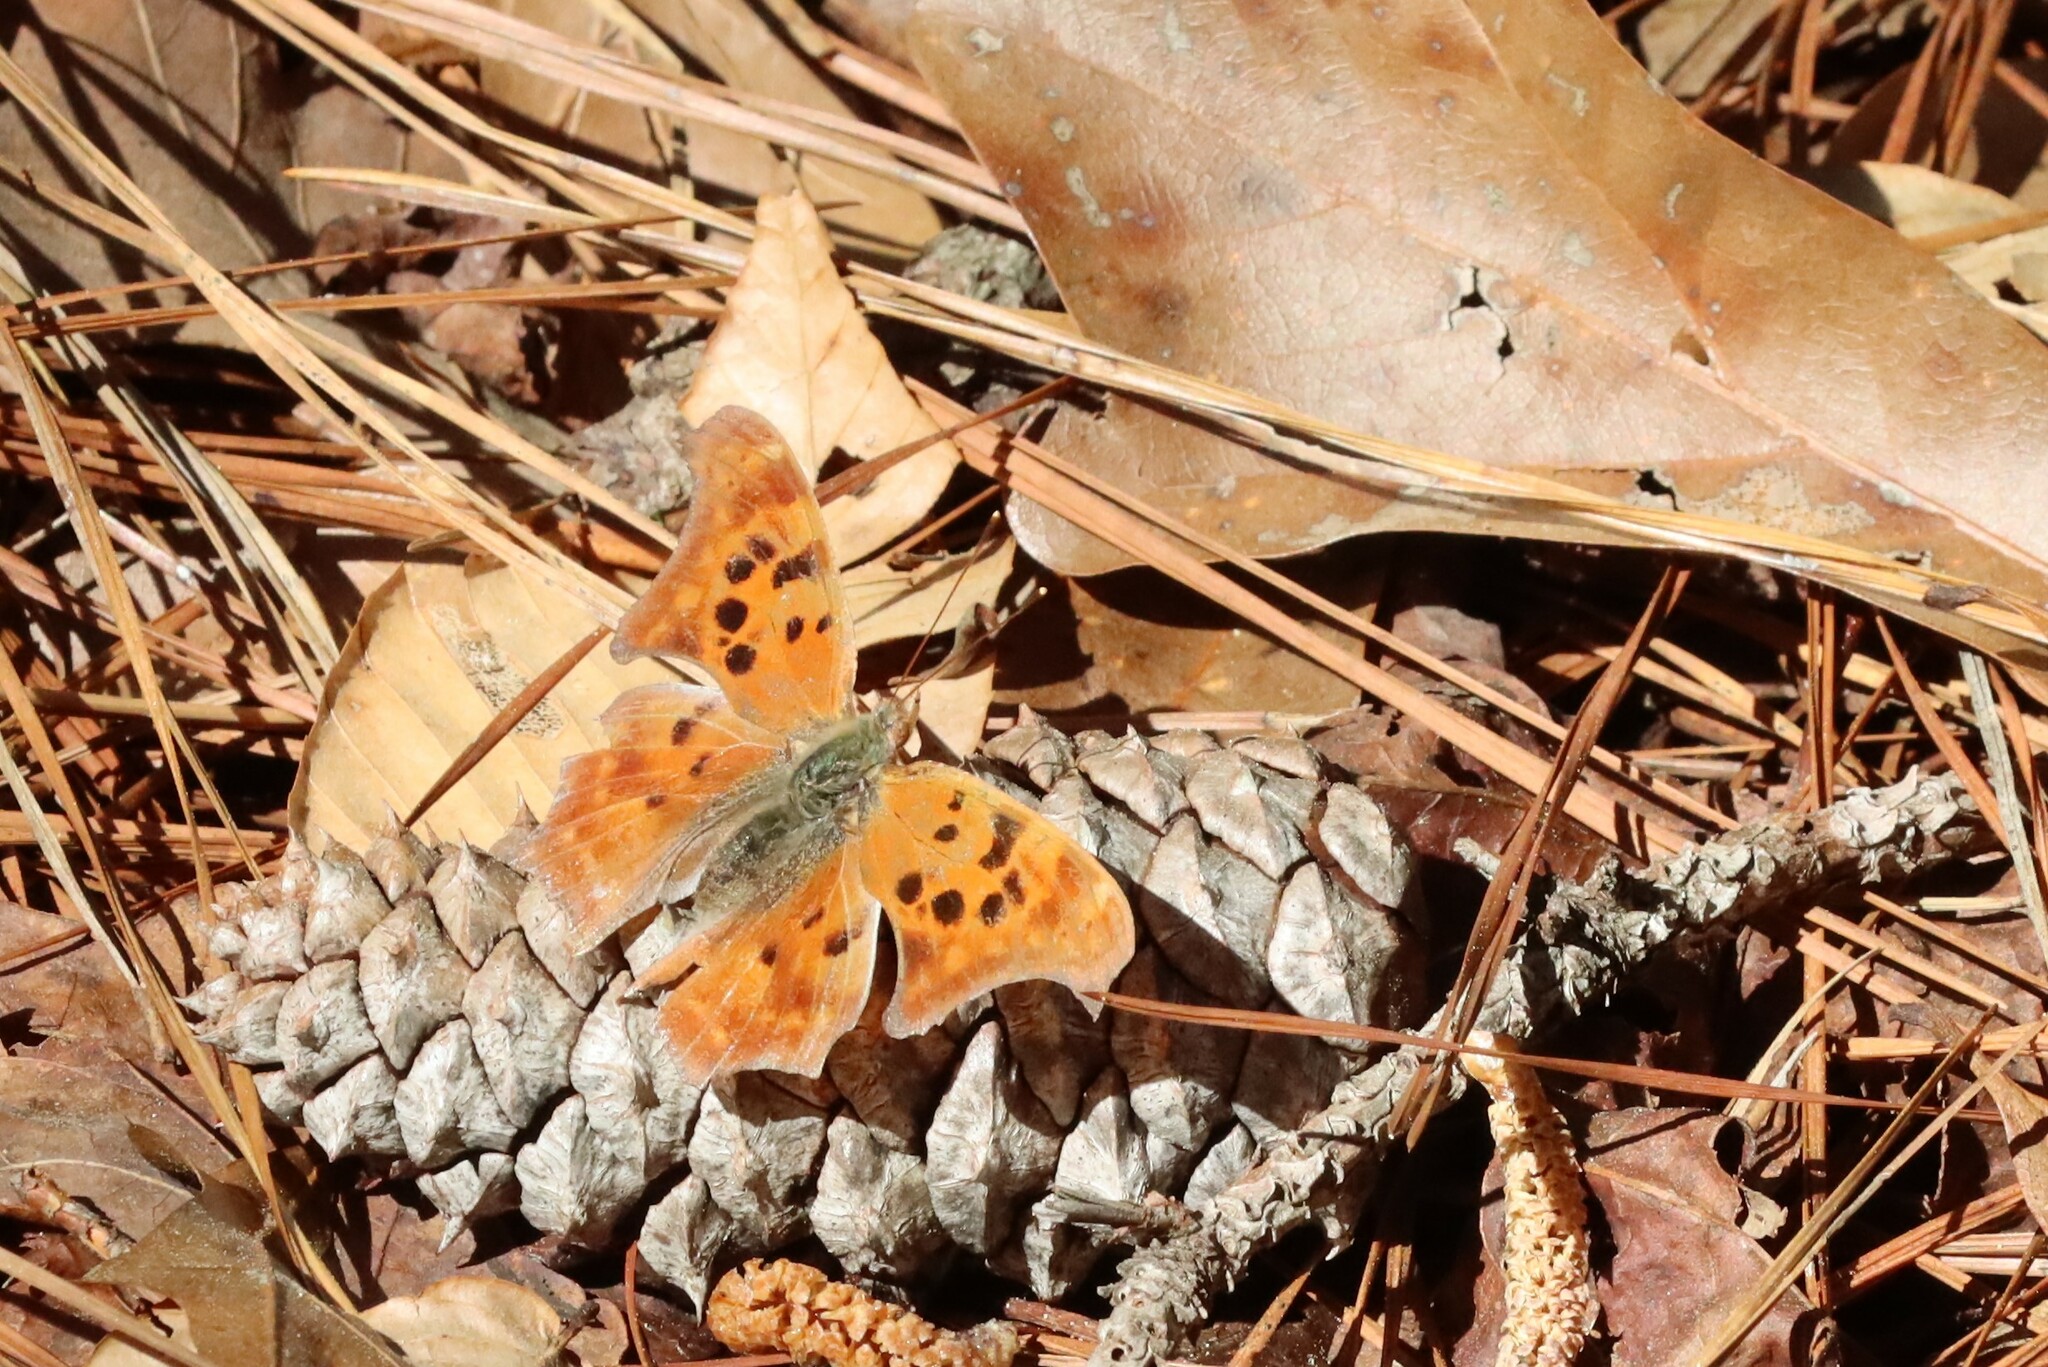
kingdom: Animalia
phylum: Arthropoda
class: Insecta
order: Lepidoptera
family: Nymphalidae
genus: Polygonia
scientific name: Polygonia interrogationis
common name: Question mark
